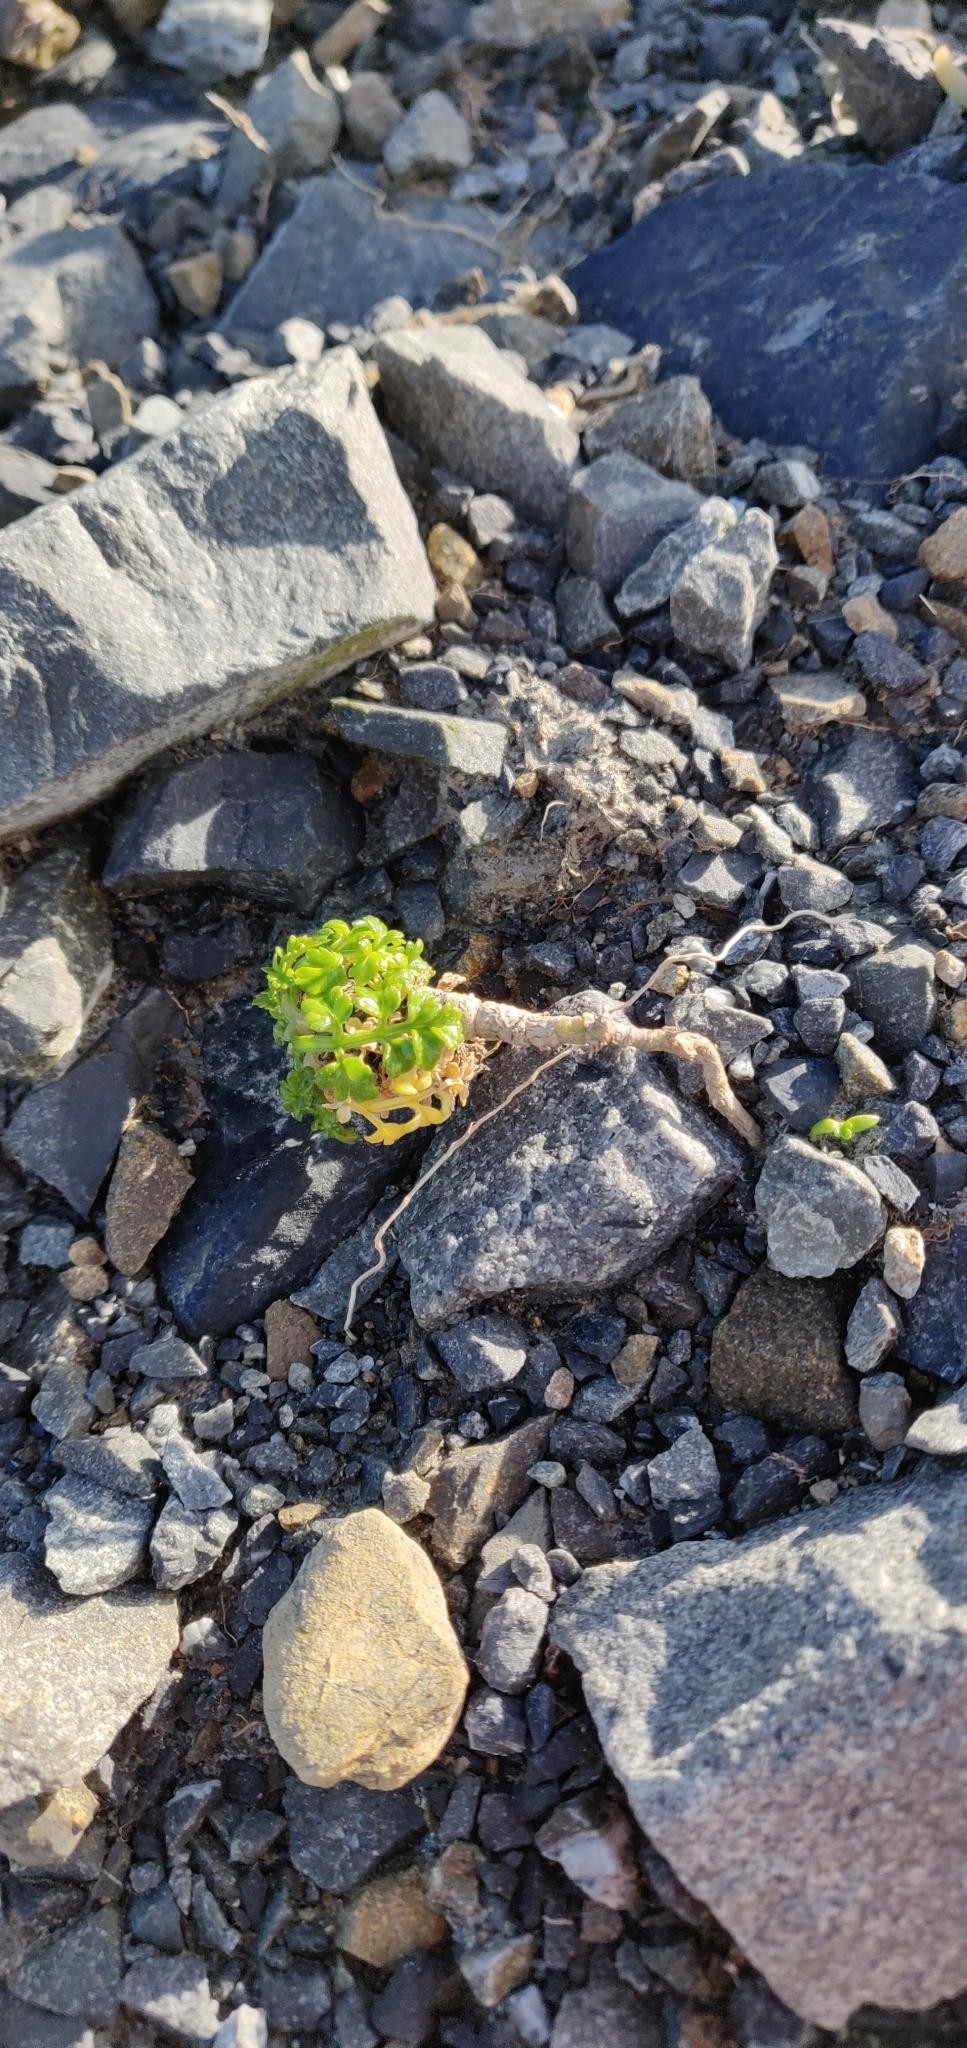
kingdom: Plantae
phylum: Tracheophyta
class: Magnoliopsida
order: Apiales
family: Apiaceae
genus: Apium
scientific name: Apium prostratum
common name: Prostrate marshwort
